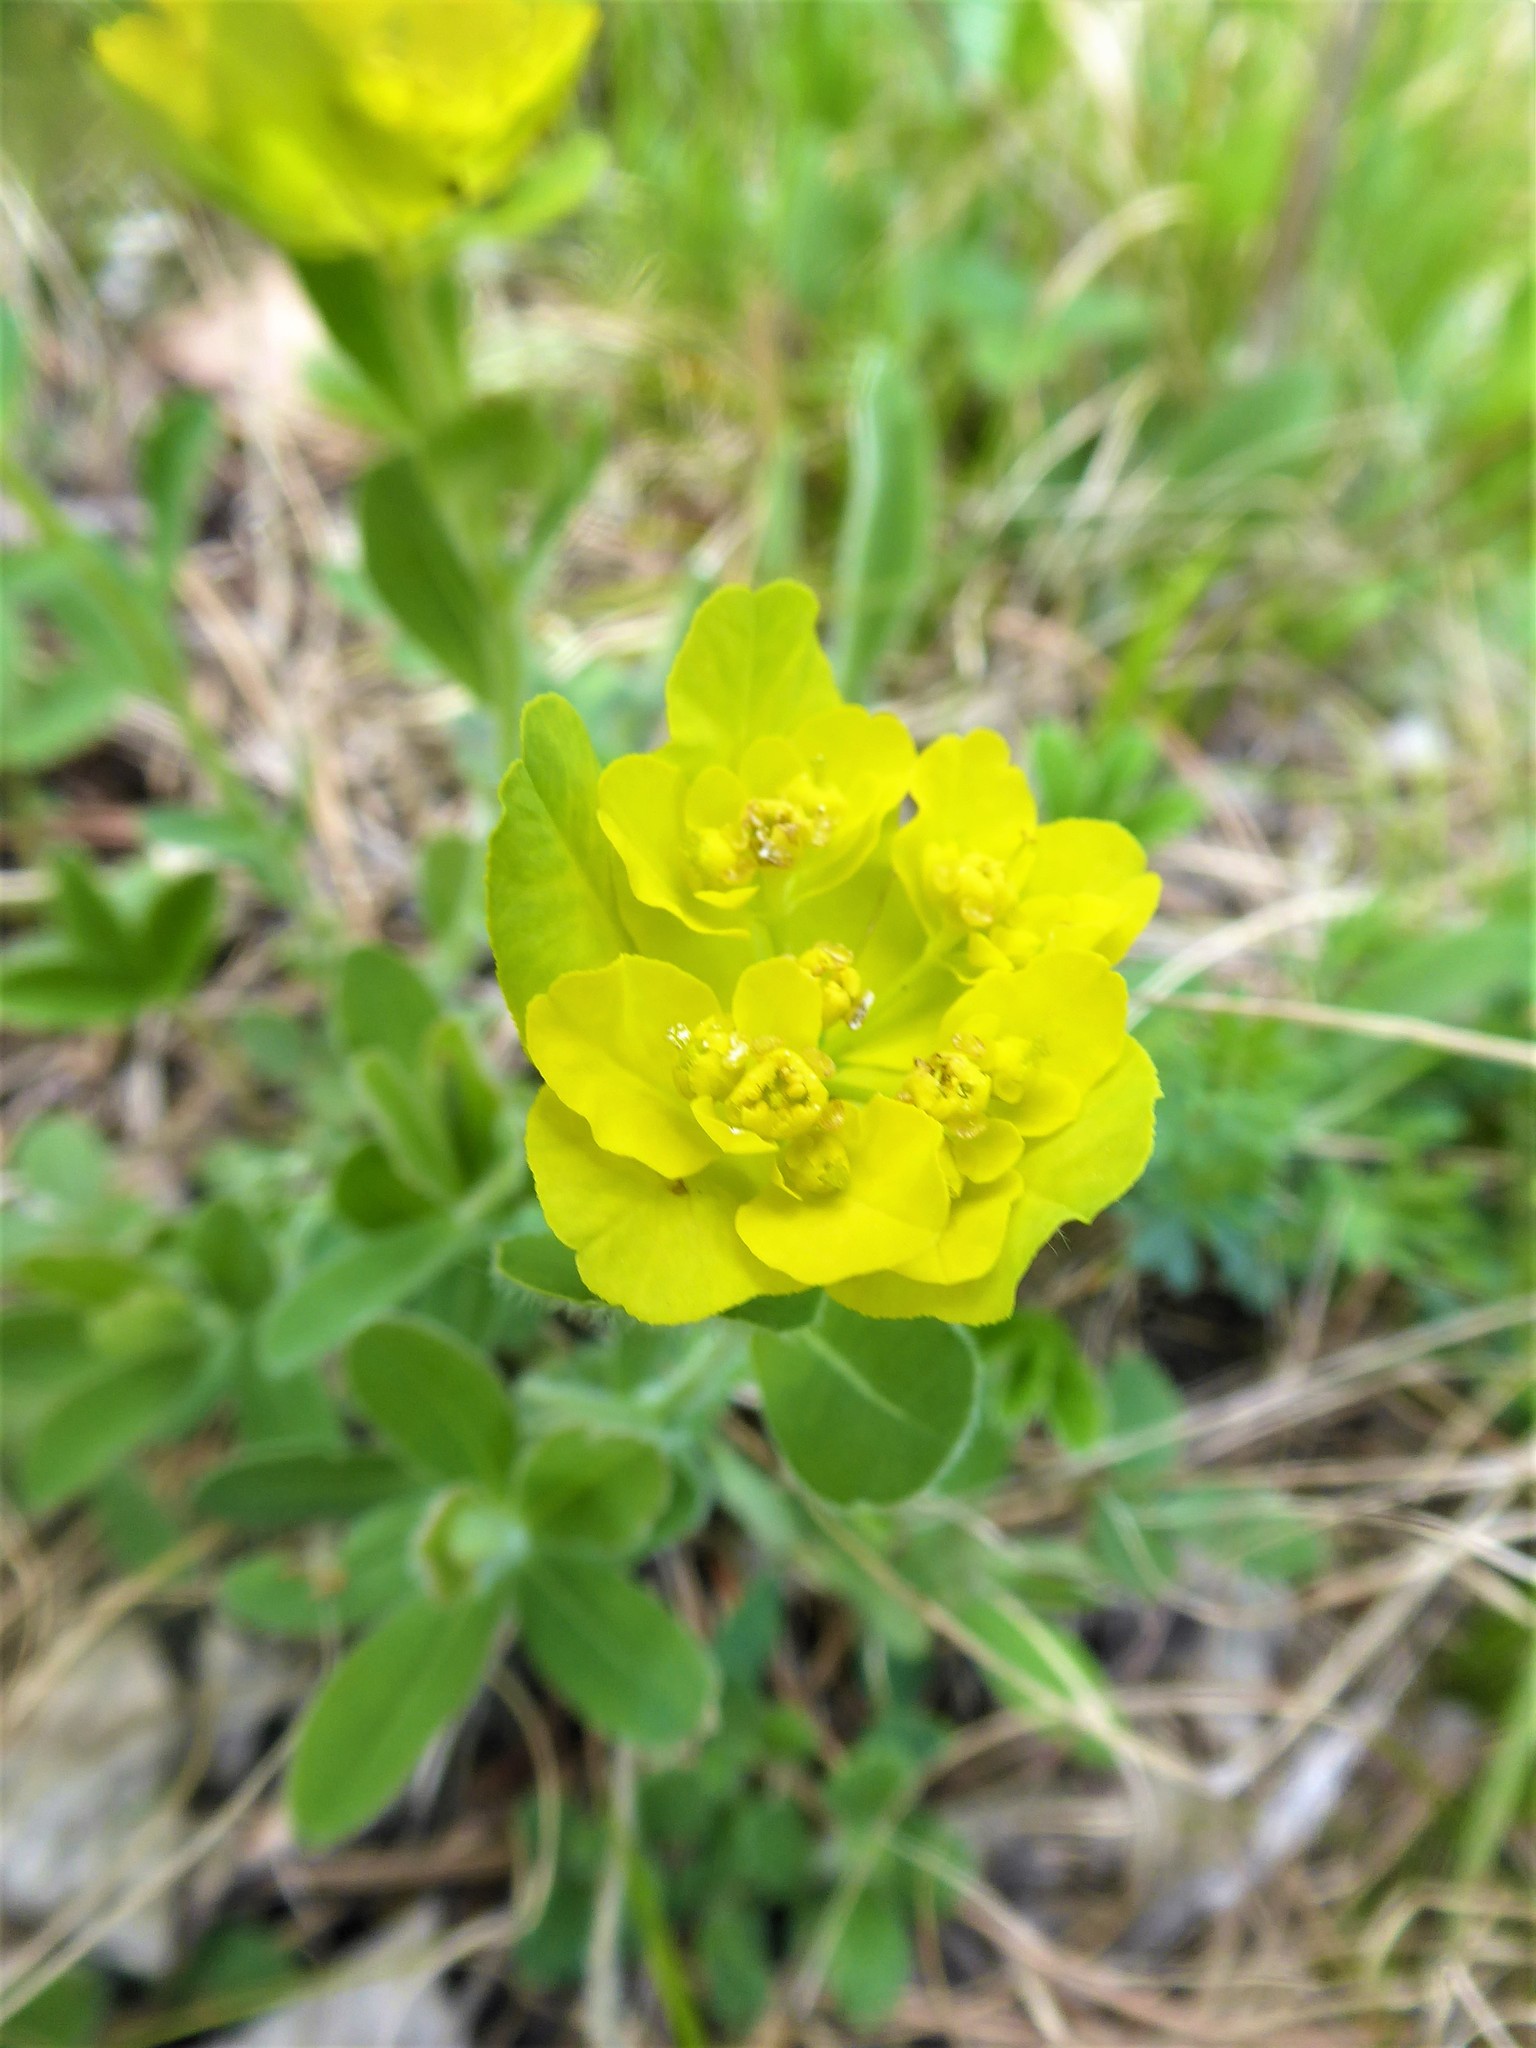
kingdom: Plantae
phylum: Tracheophyta
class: Magnoliopsida
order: Malpighiales
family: Euphorbiaceae
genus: Euphorbia
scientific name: Euphorbia epithymoides
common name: Cushion spurge
